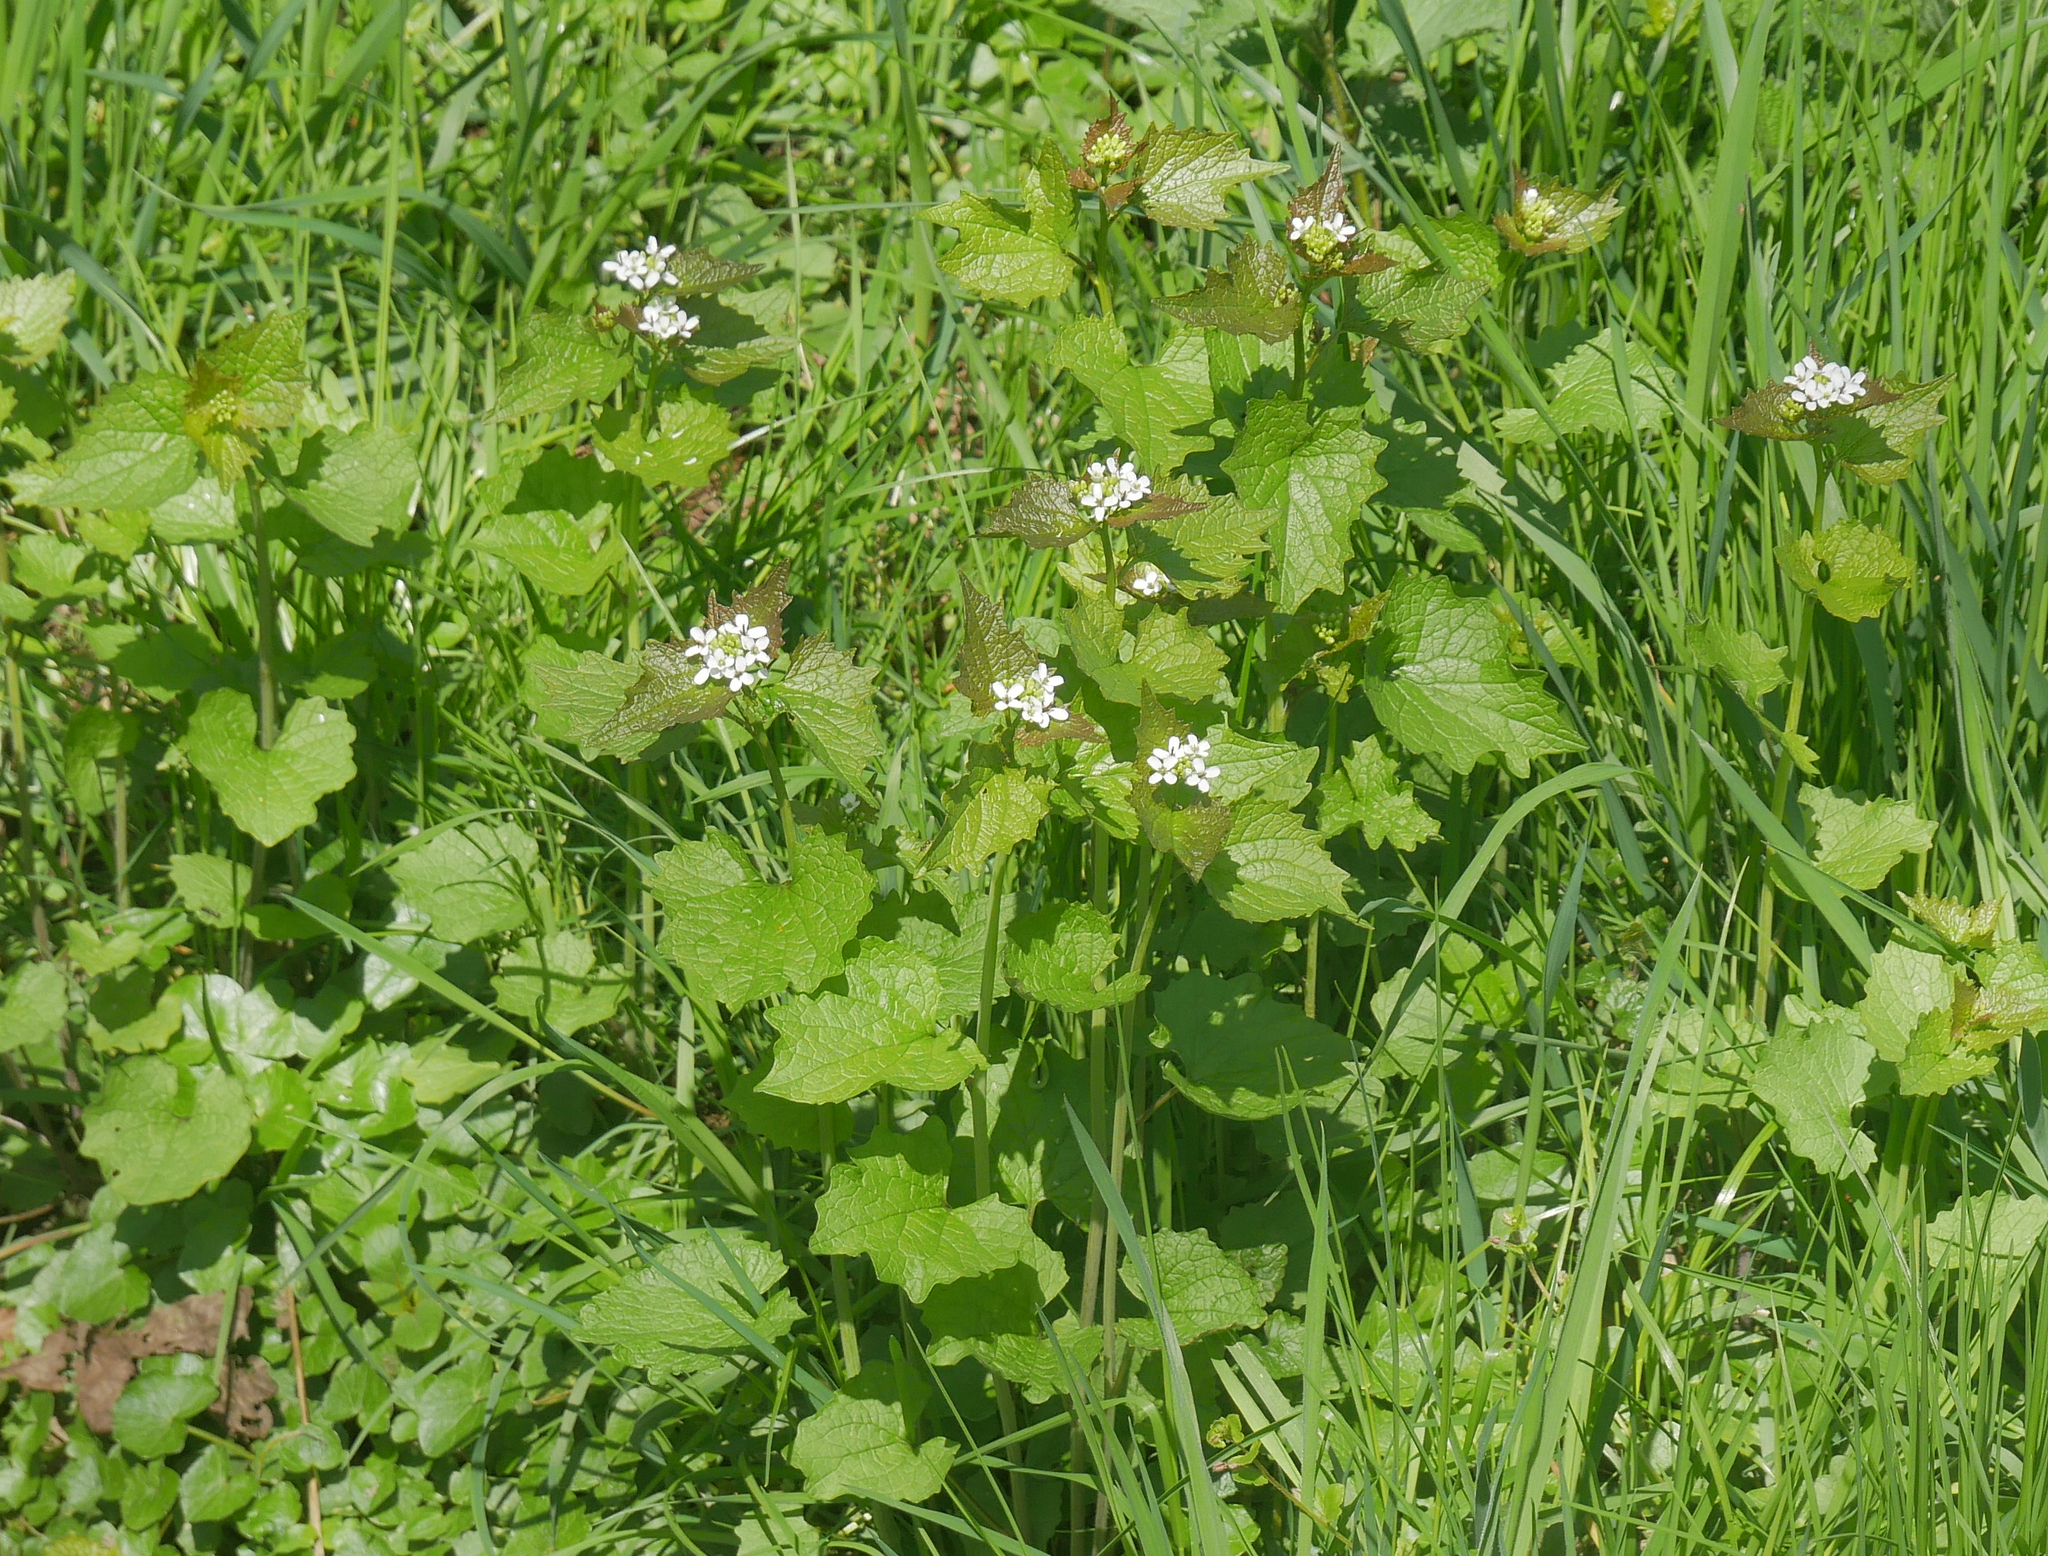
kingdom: Plantae
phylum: Tracheophyta
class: Magnoliopsida
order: Brassicales
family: Brassicaceae
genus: Alliaria
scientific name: Alliaria petiolata
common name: Garlic mustard
